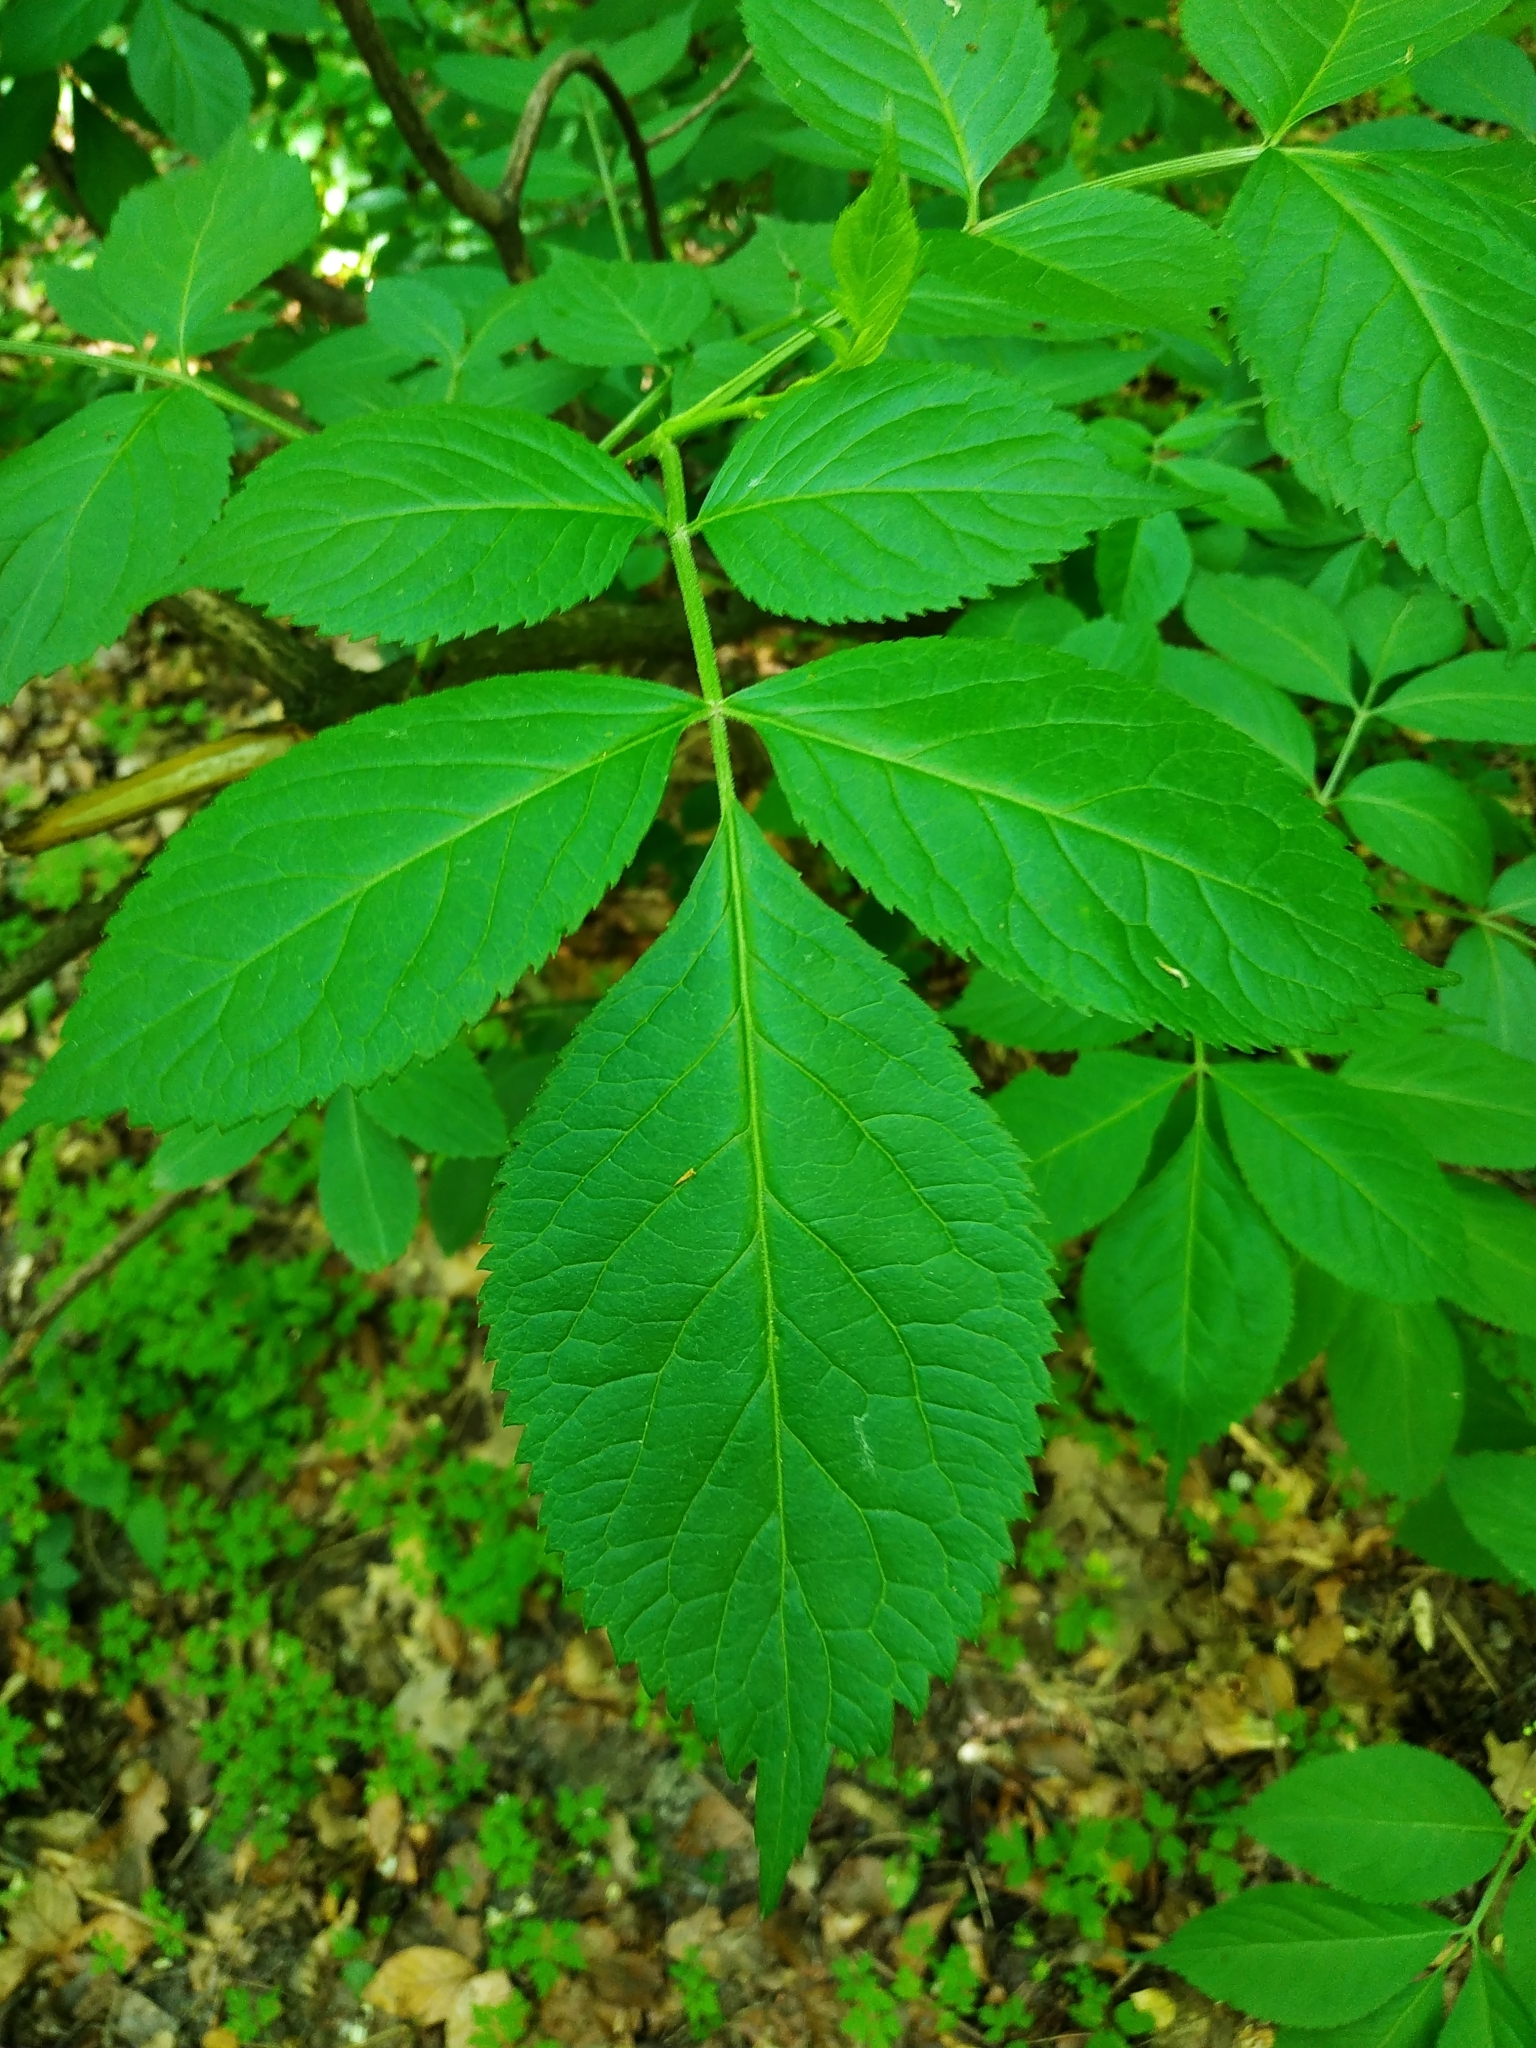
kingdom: Plantae
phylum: Tracheophyta
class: Magnoliopsida
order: Dipsacales
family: Viburnaceae
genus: Sambucus
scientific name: Sambucus nigra
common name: Elder
